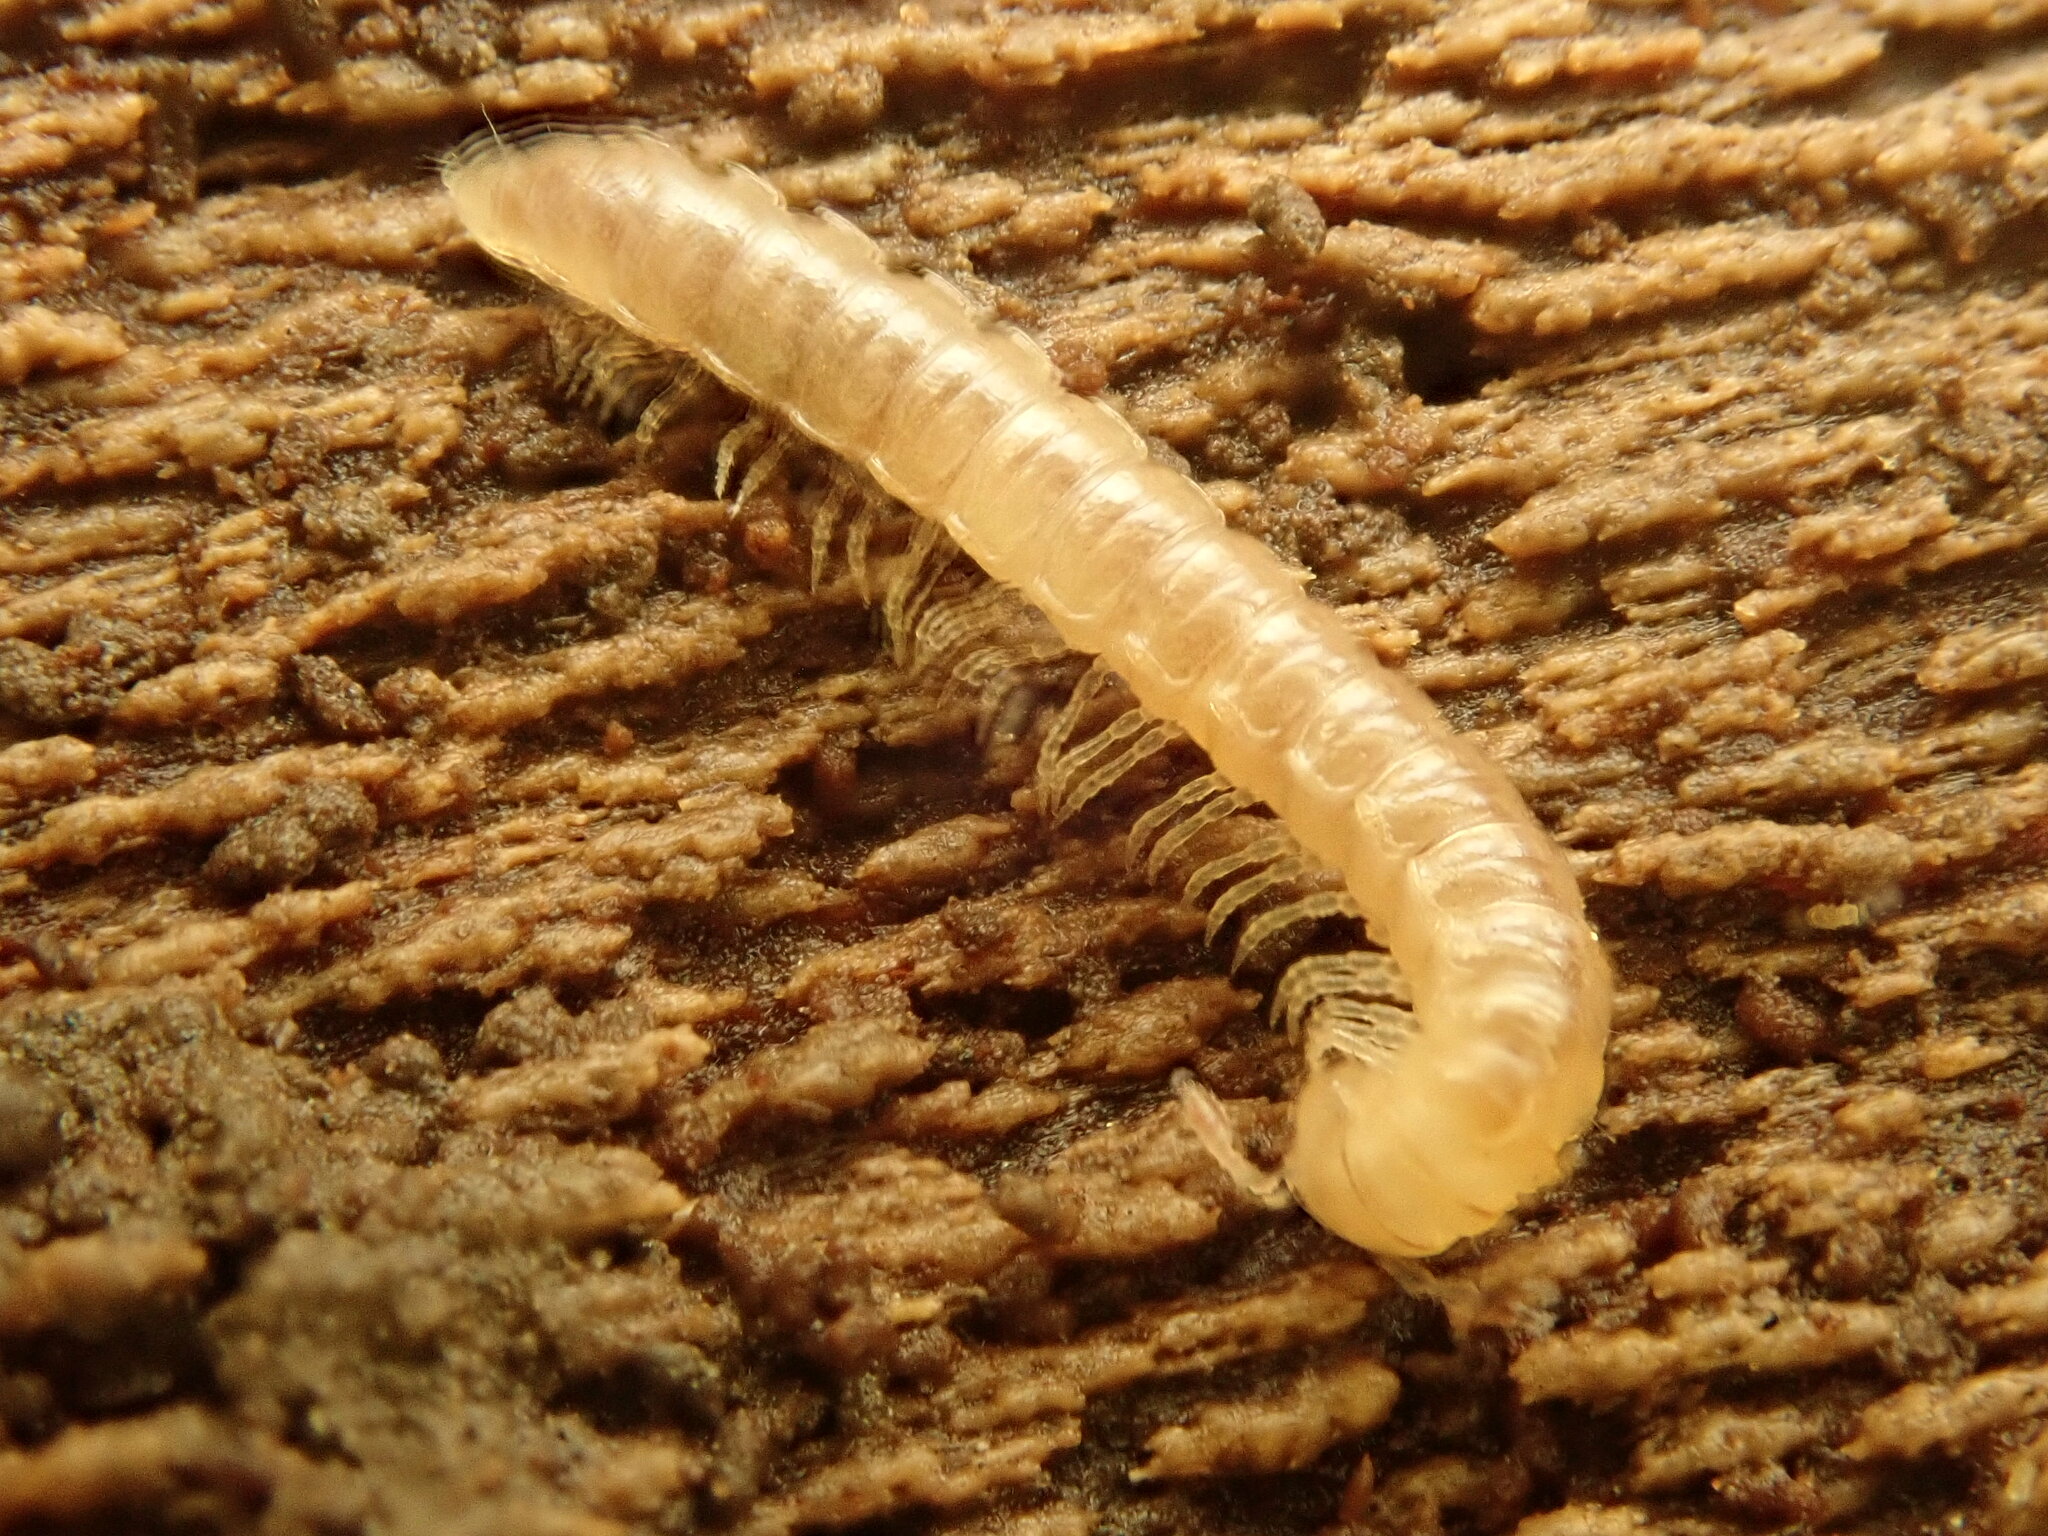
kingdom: Animalia
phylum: Arthropoda
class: Diplopoda
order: Polydesmida
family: Paradoxosomatidae
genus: Oxidus
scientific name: Oxidus gracilis
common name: Greenhouse millipede
